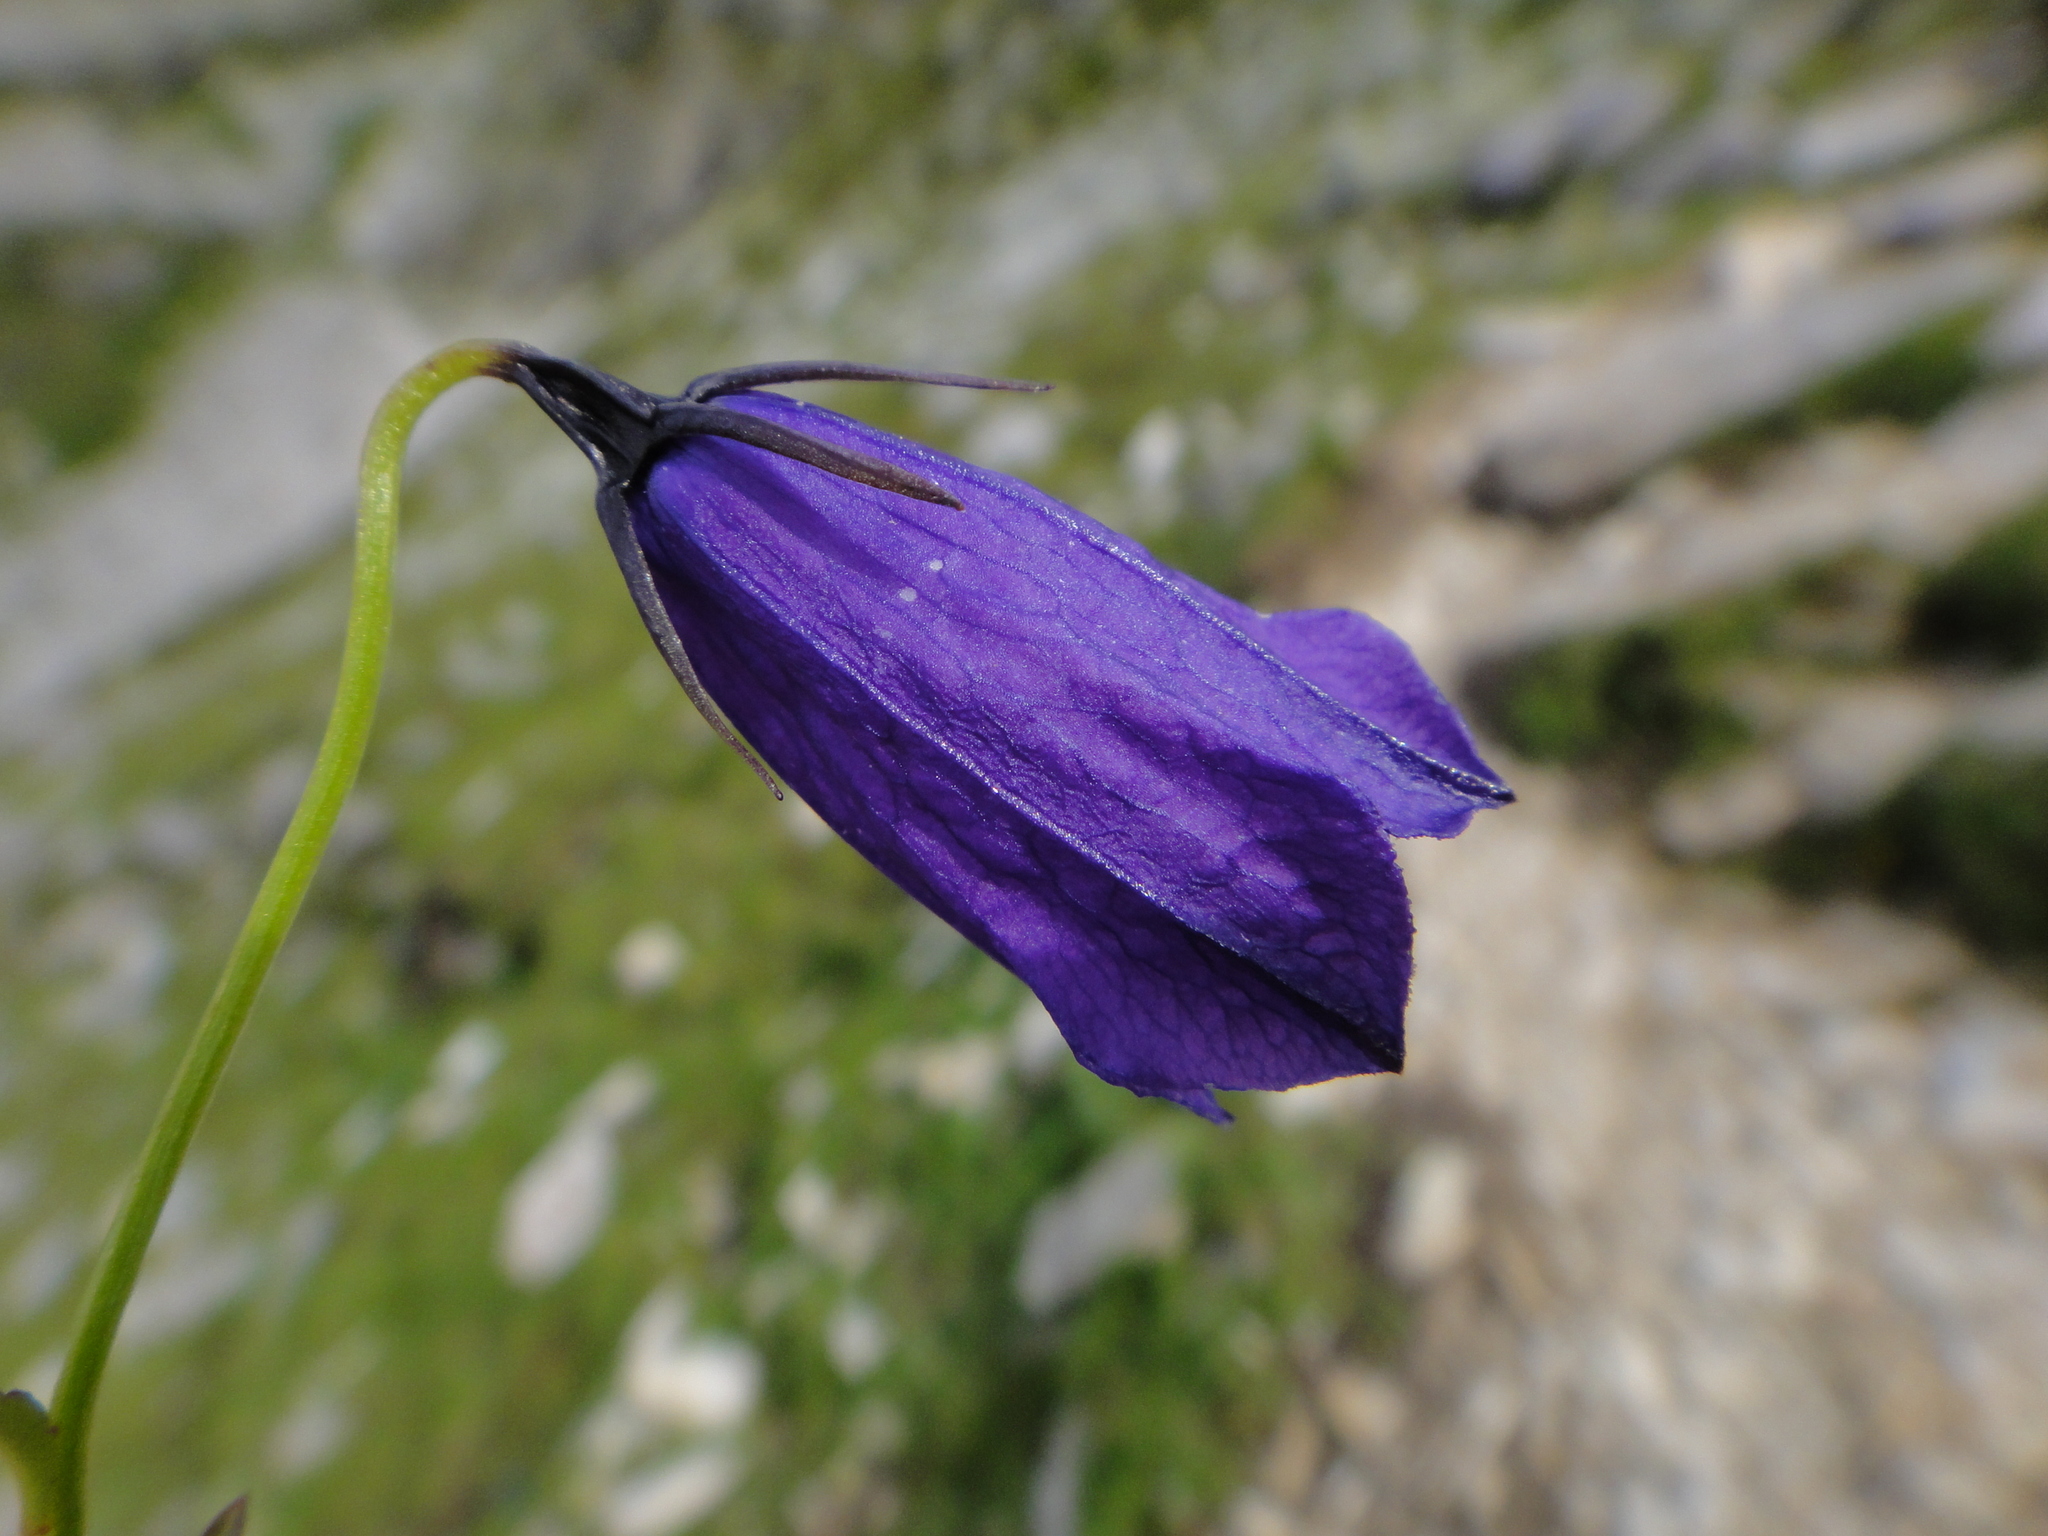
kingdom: Plantae
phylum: Tracheophyta
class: Magnoliopsida
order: Asterales
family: Campanulaceae
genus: Campanula
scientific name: Campanula pulla
